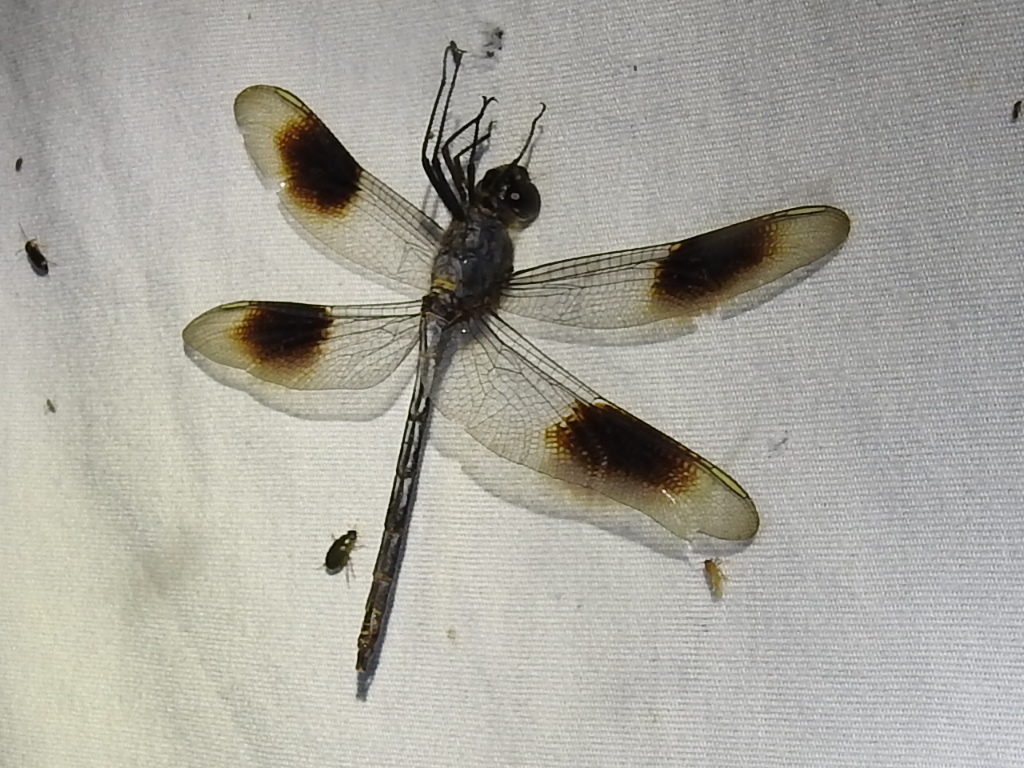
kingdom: Animalia
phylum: Arthropoda
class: Insecta
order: Odonata
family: Libellulidae
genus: Brachymesia
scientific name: Brachymesia gravida
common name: Four-spotted pennant
